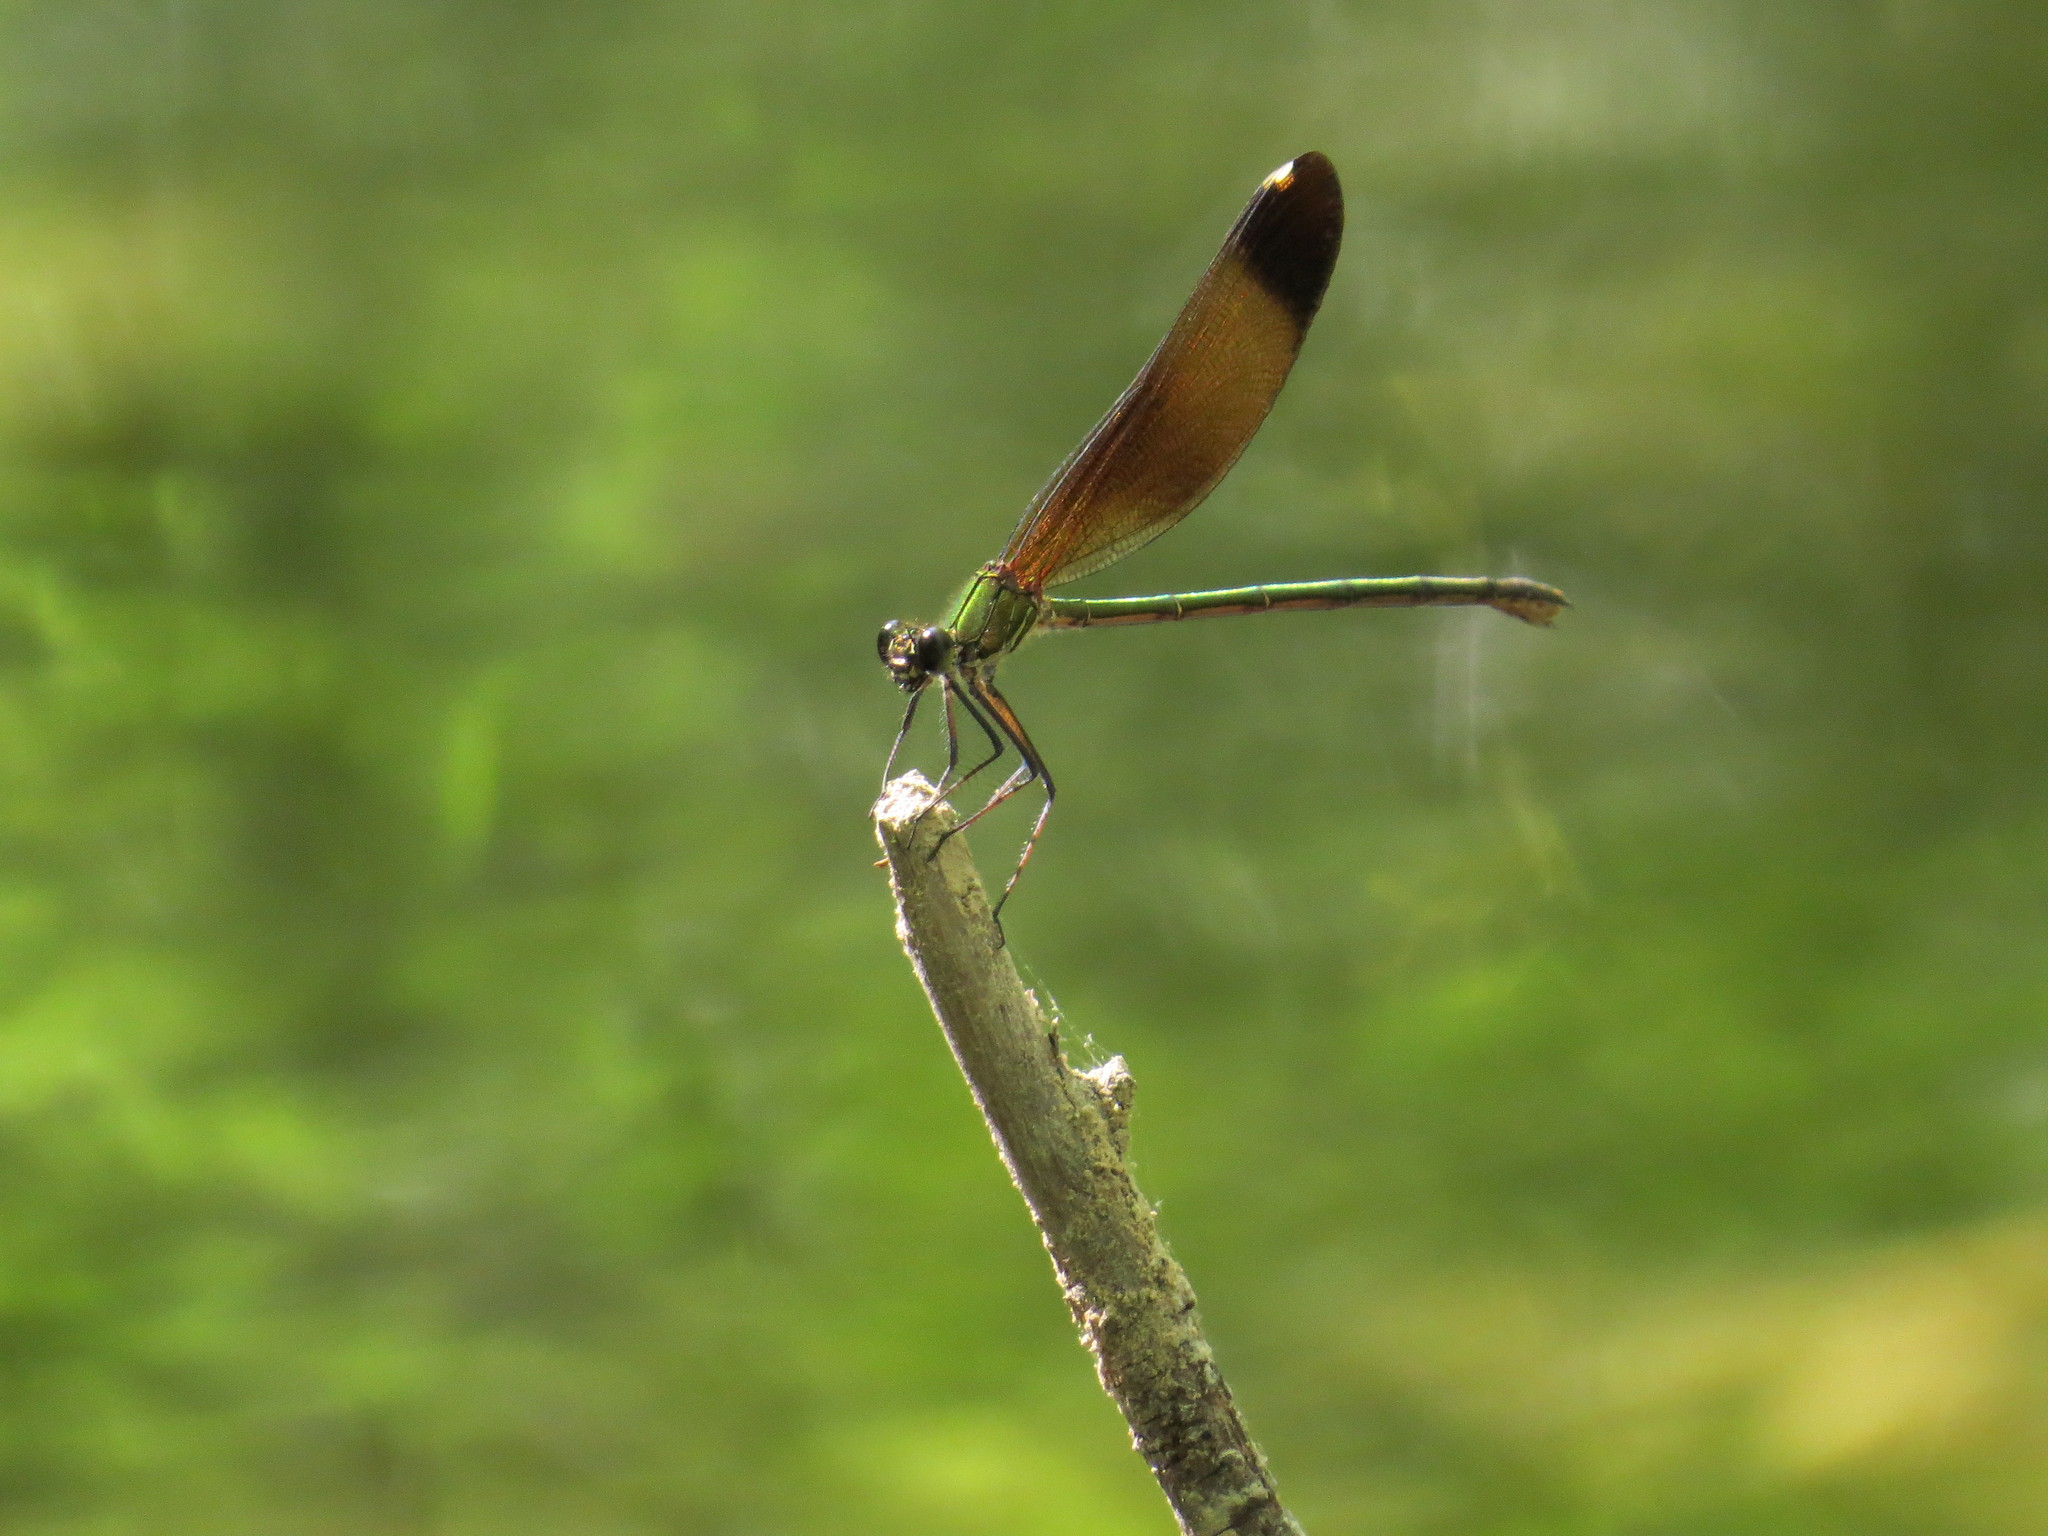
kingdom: Animalia
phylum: Arthropoda
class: Insecta
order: Odonata
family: Calopterygidae
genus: Calopteryx
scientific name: Calopteryx haemorrhoidalis
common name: Copper demoiselle
